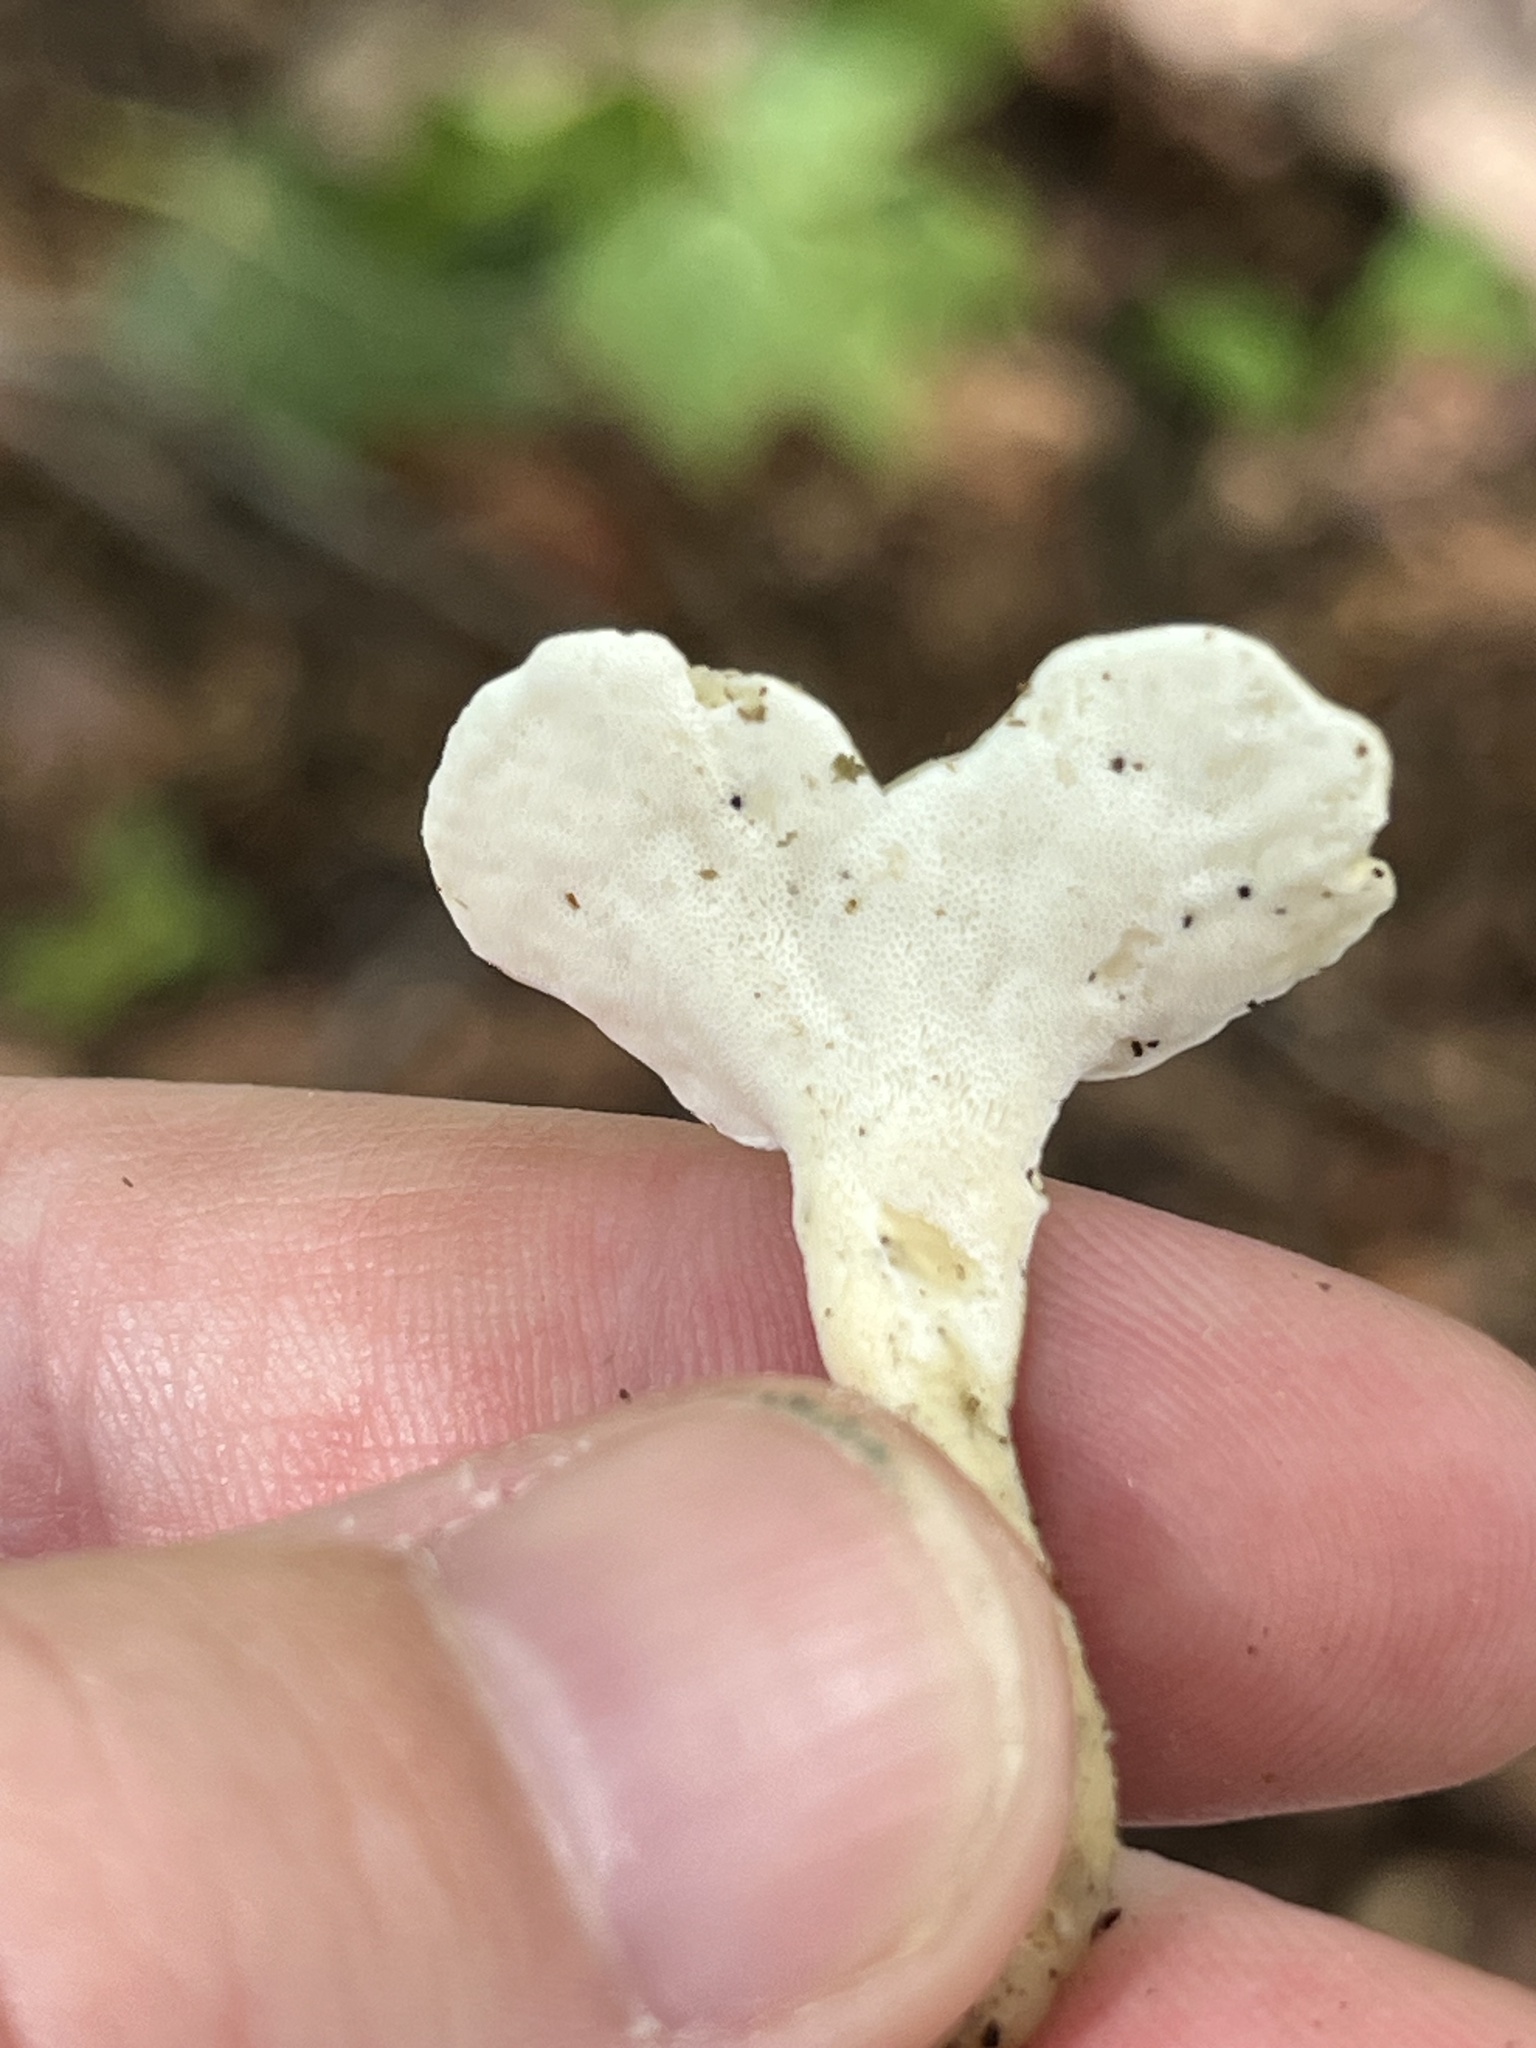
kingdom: Fungi
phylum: Basidiomycota
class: Agaricomycetes
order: Polyporales
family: Steccherinaceae
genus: Loweomyces
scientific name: Loweomyces fractipes
